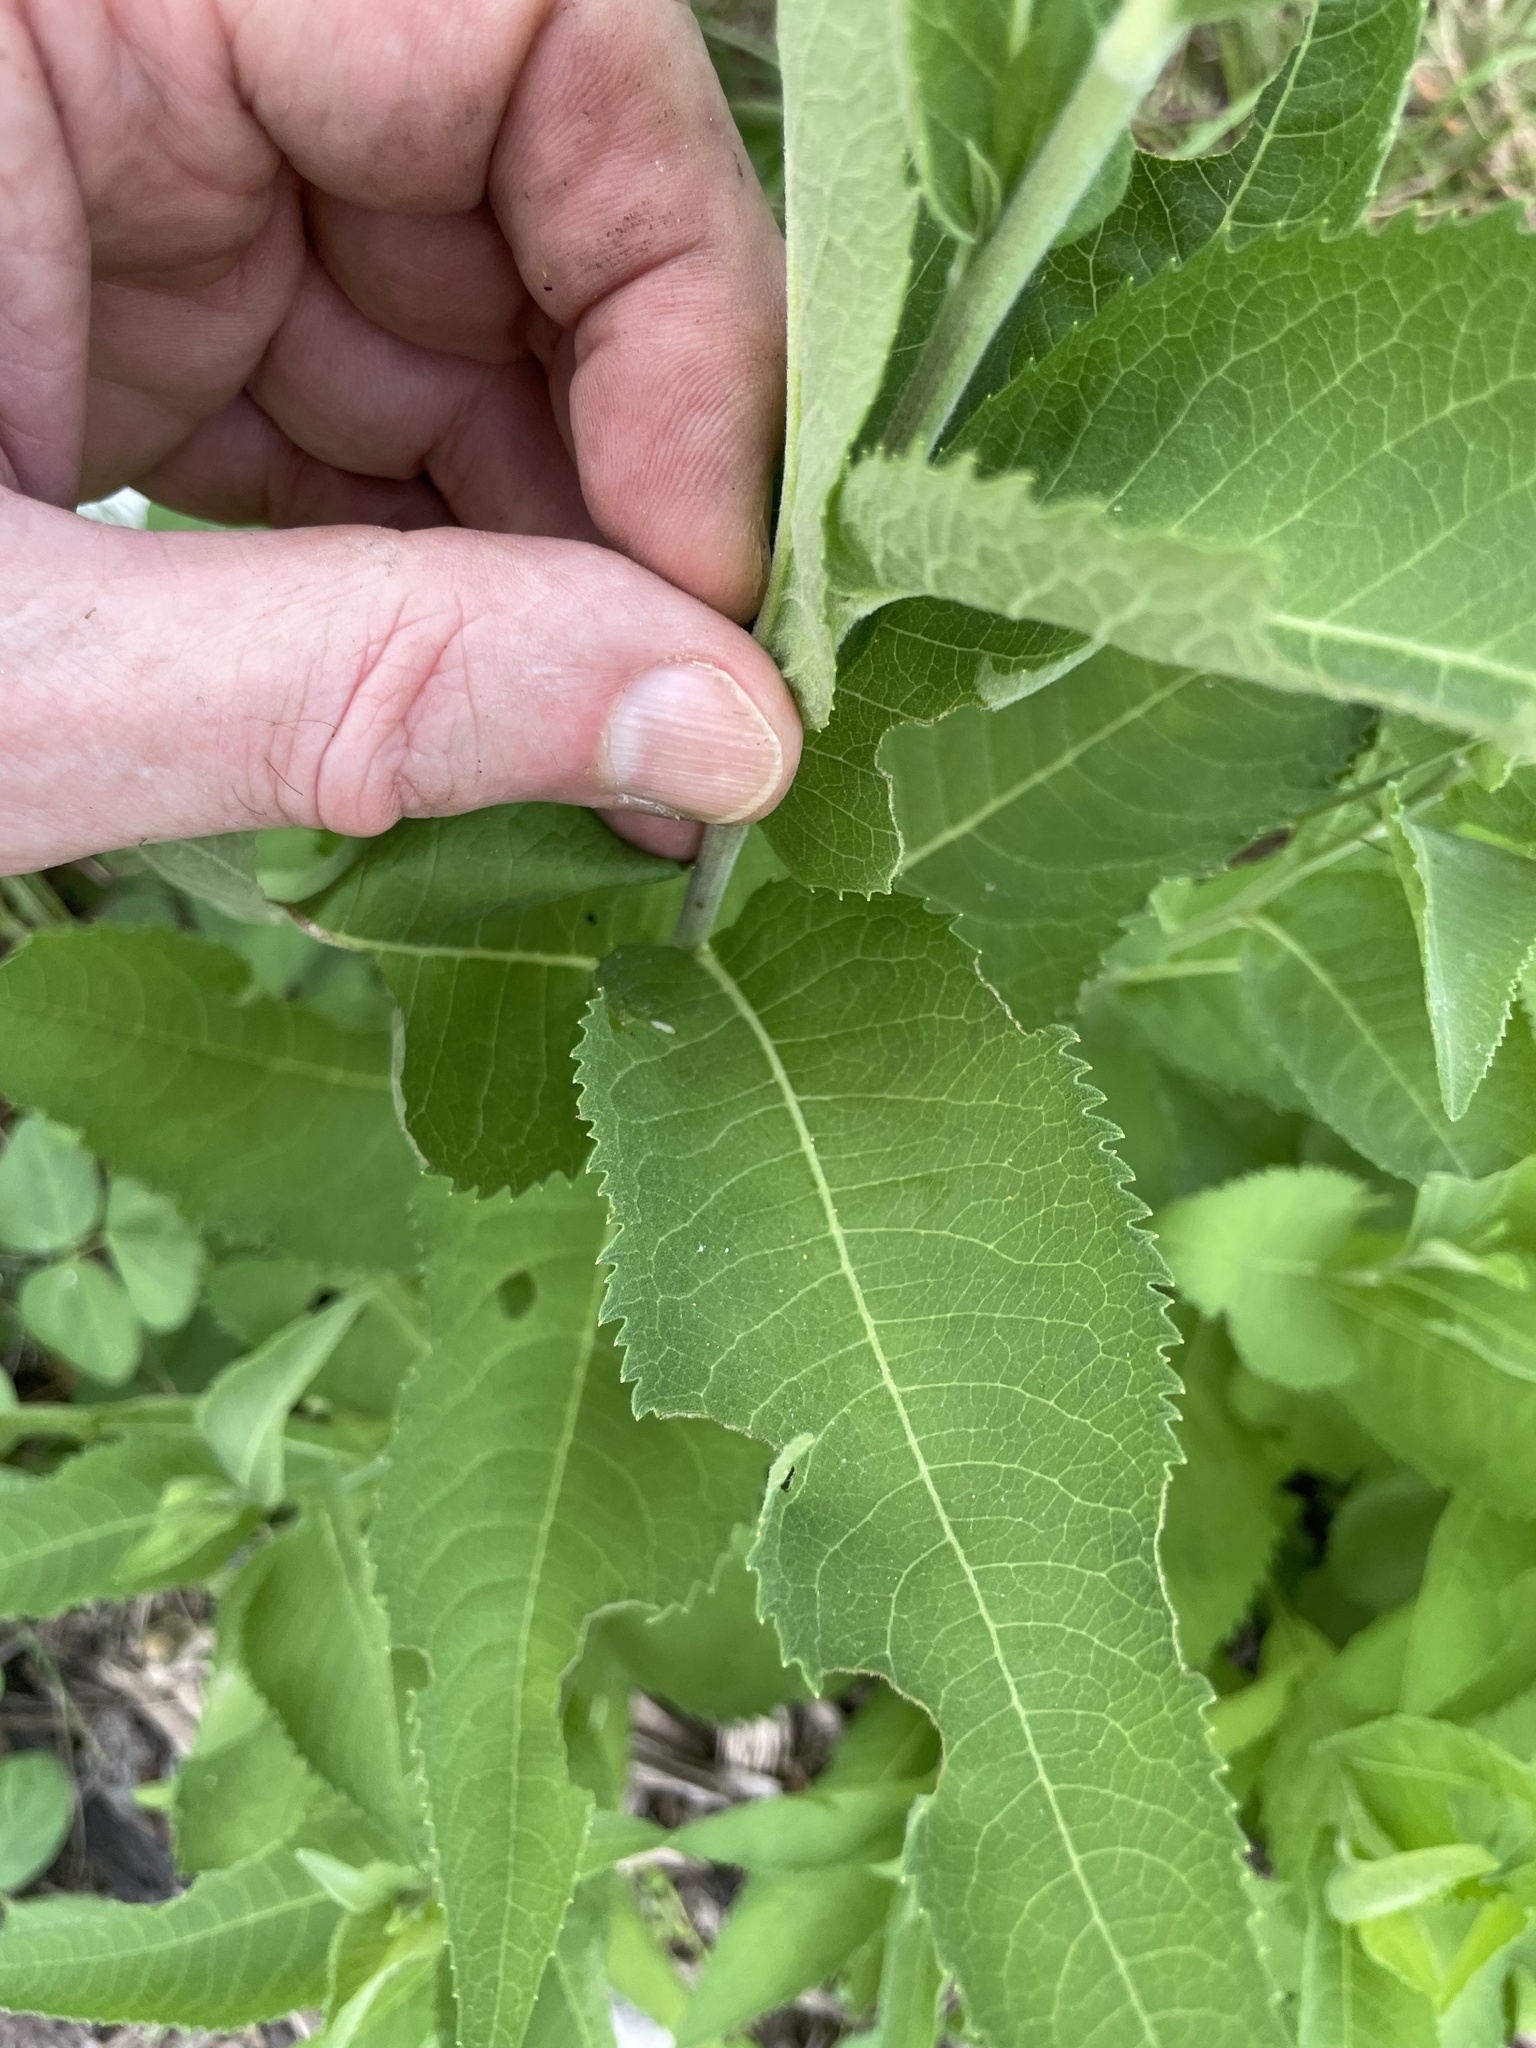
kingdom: Plantae
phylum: Tracheophyta
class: Magnoliopsida
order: Asterales
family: Asteraceae
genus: Vernonia
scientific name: Vernonia baldwinii
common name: Western ironweed
